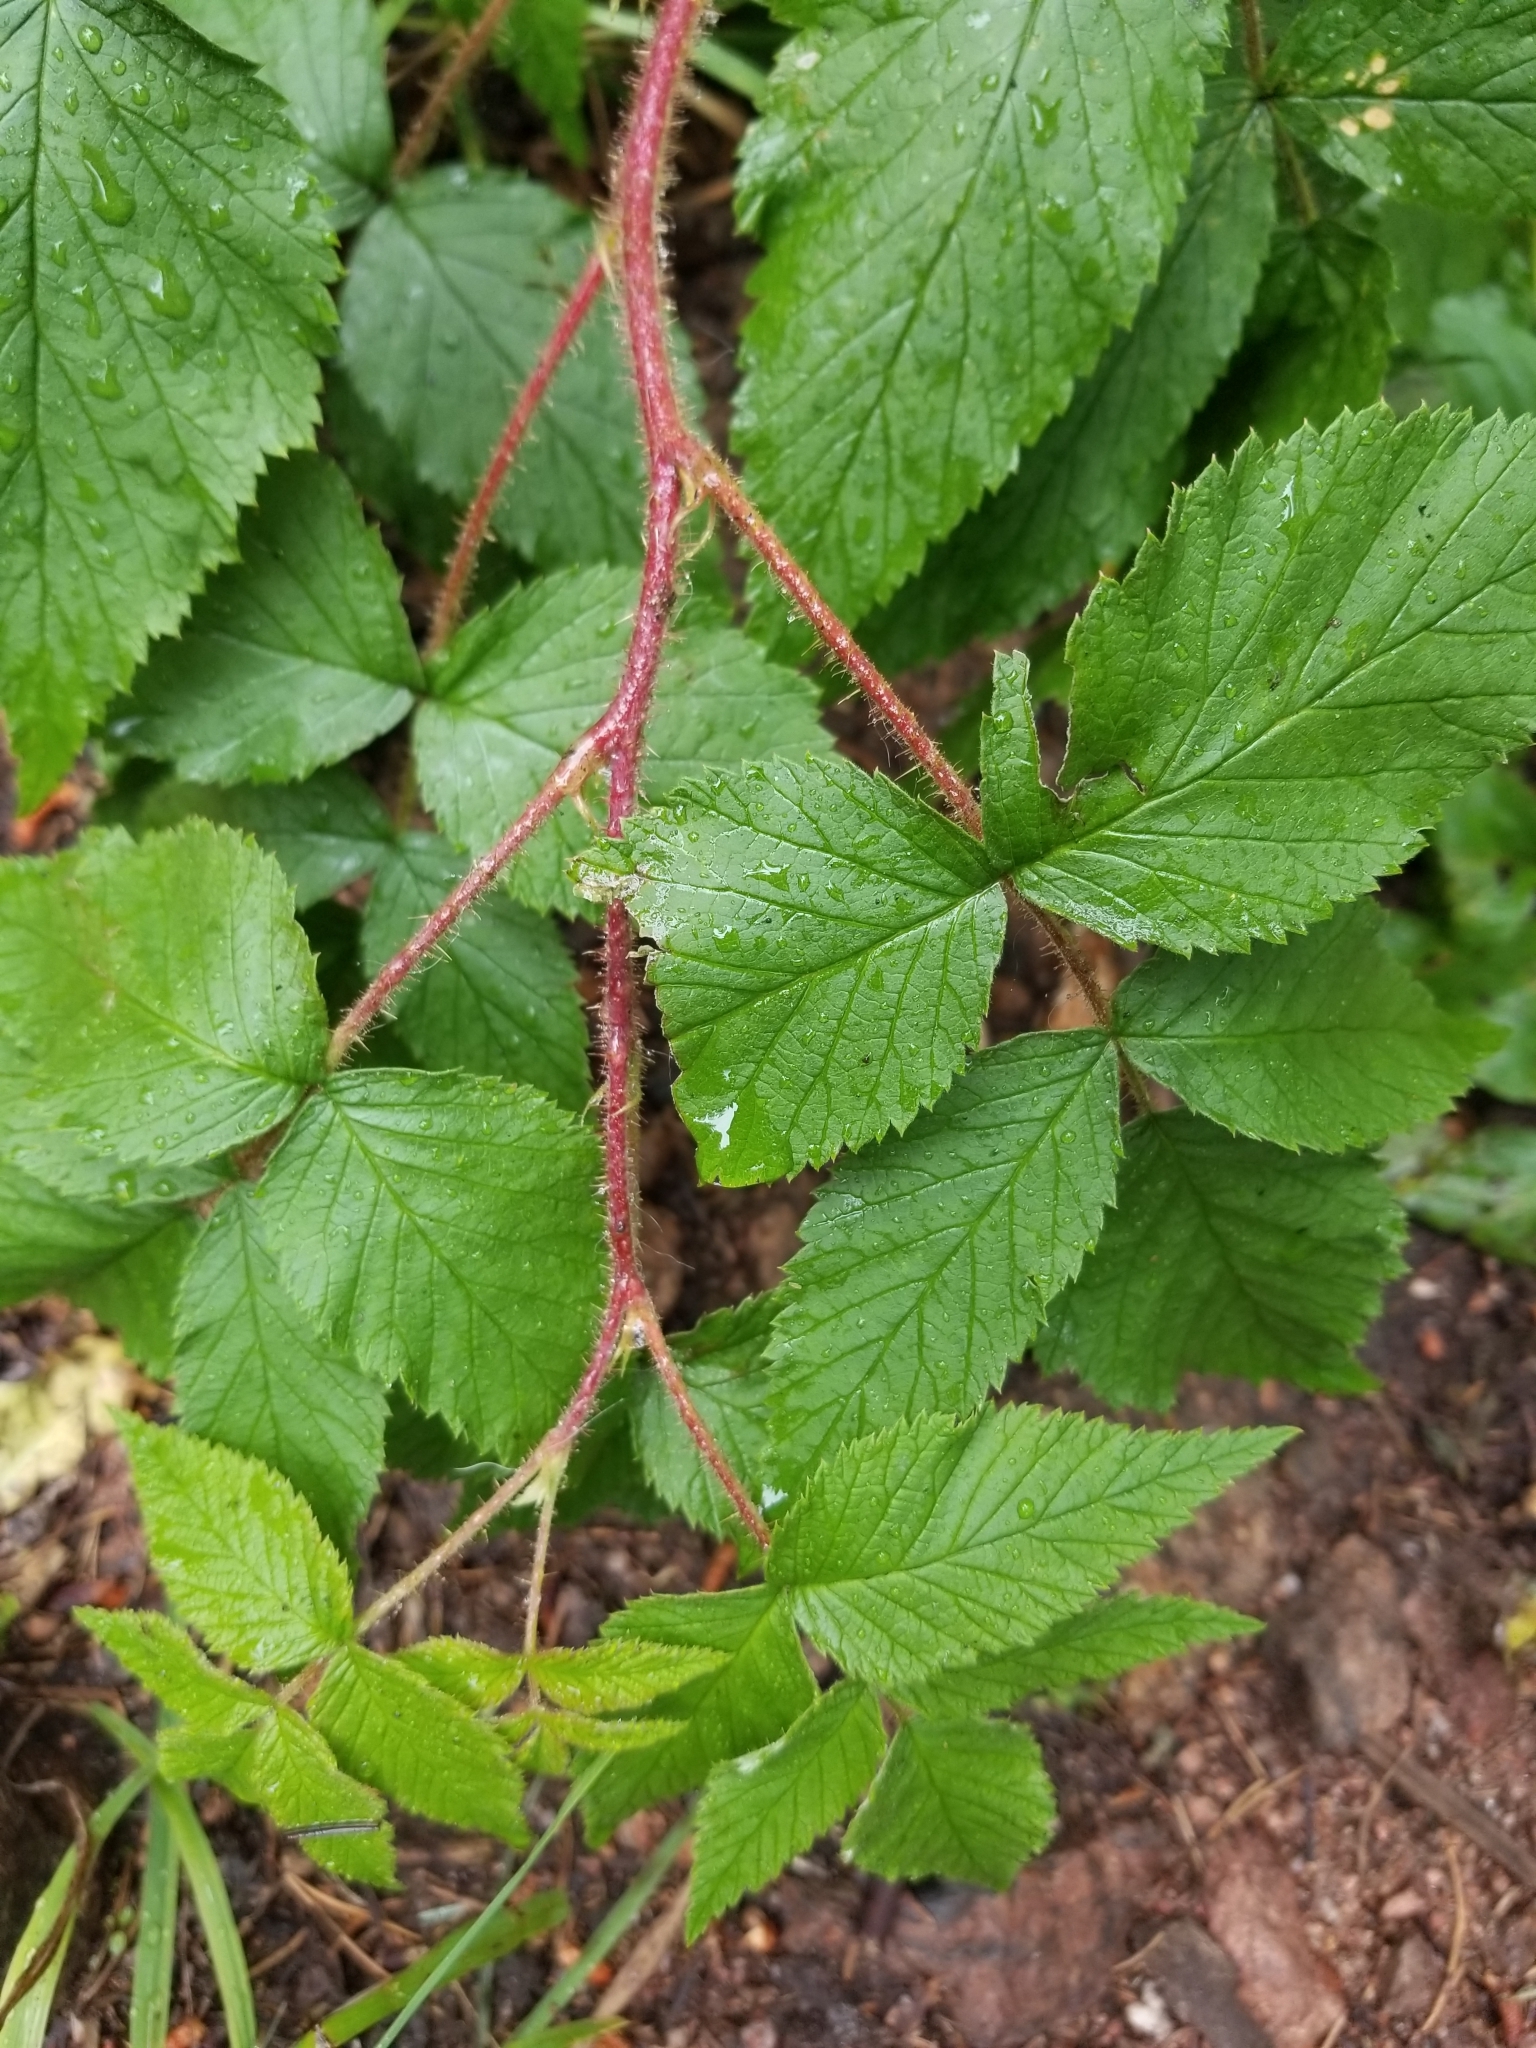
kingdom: Plantae
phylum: Tracheophyta
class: Magnoliopsida
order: Rosales
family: Rosaceae
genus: Rubus
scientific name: Rubus idaeus
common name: Raspberry
